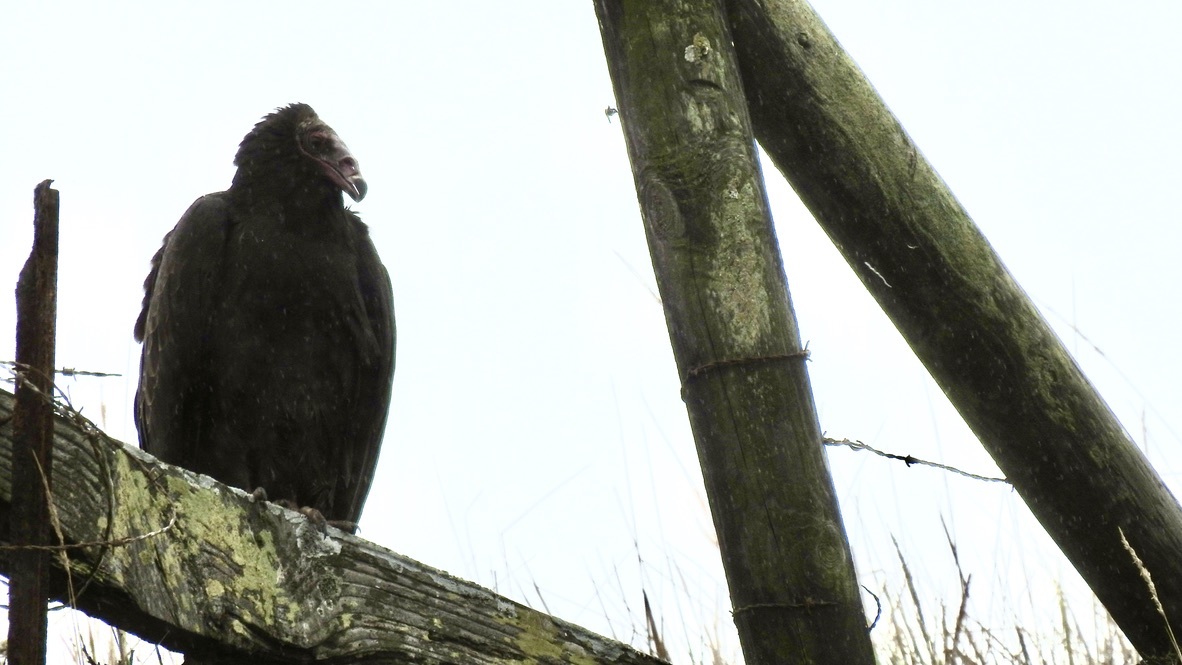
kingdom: Animalia
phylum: Chordata
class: Aves
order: Accipitriformes
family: Cathartidae
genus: Cathartes
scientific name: Cathartes aura
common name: Turkey vulture
